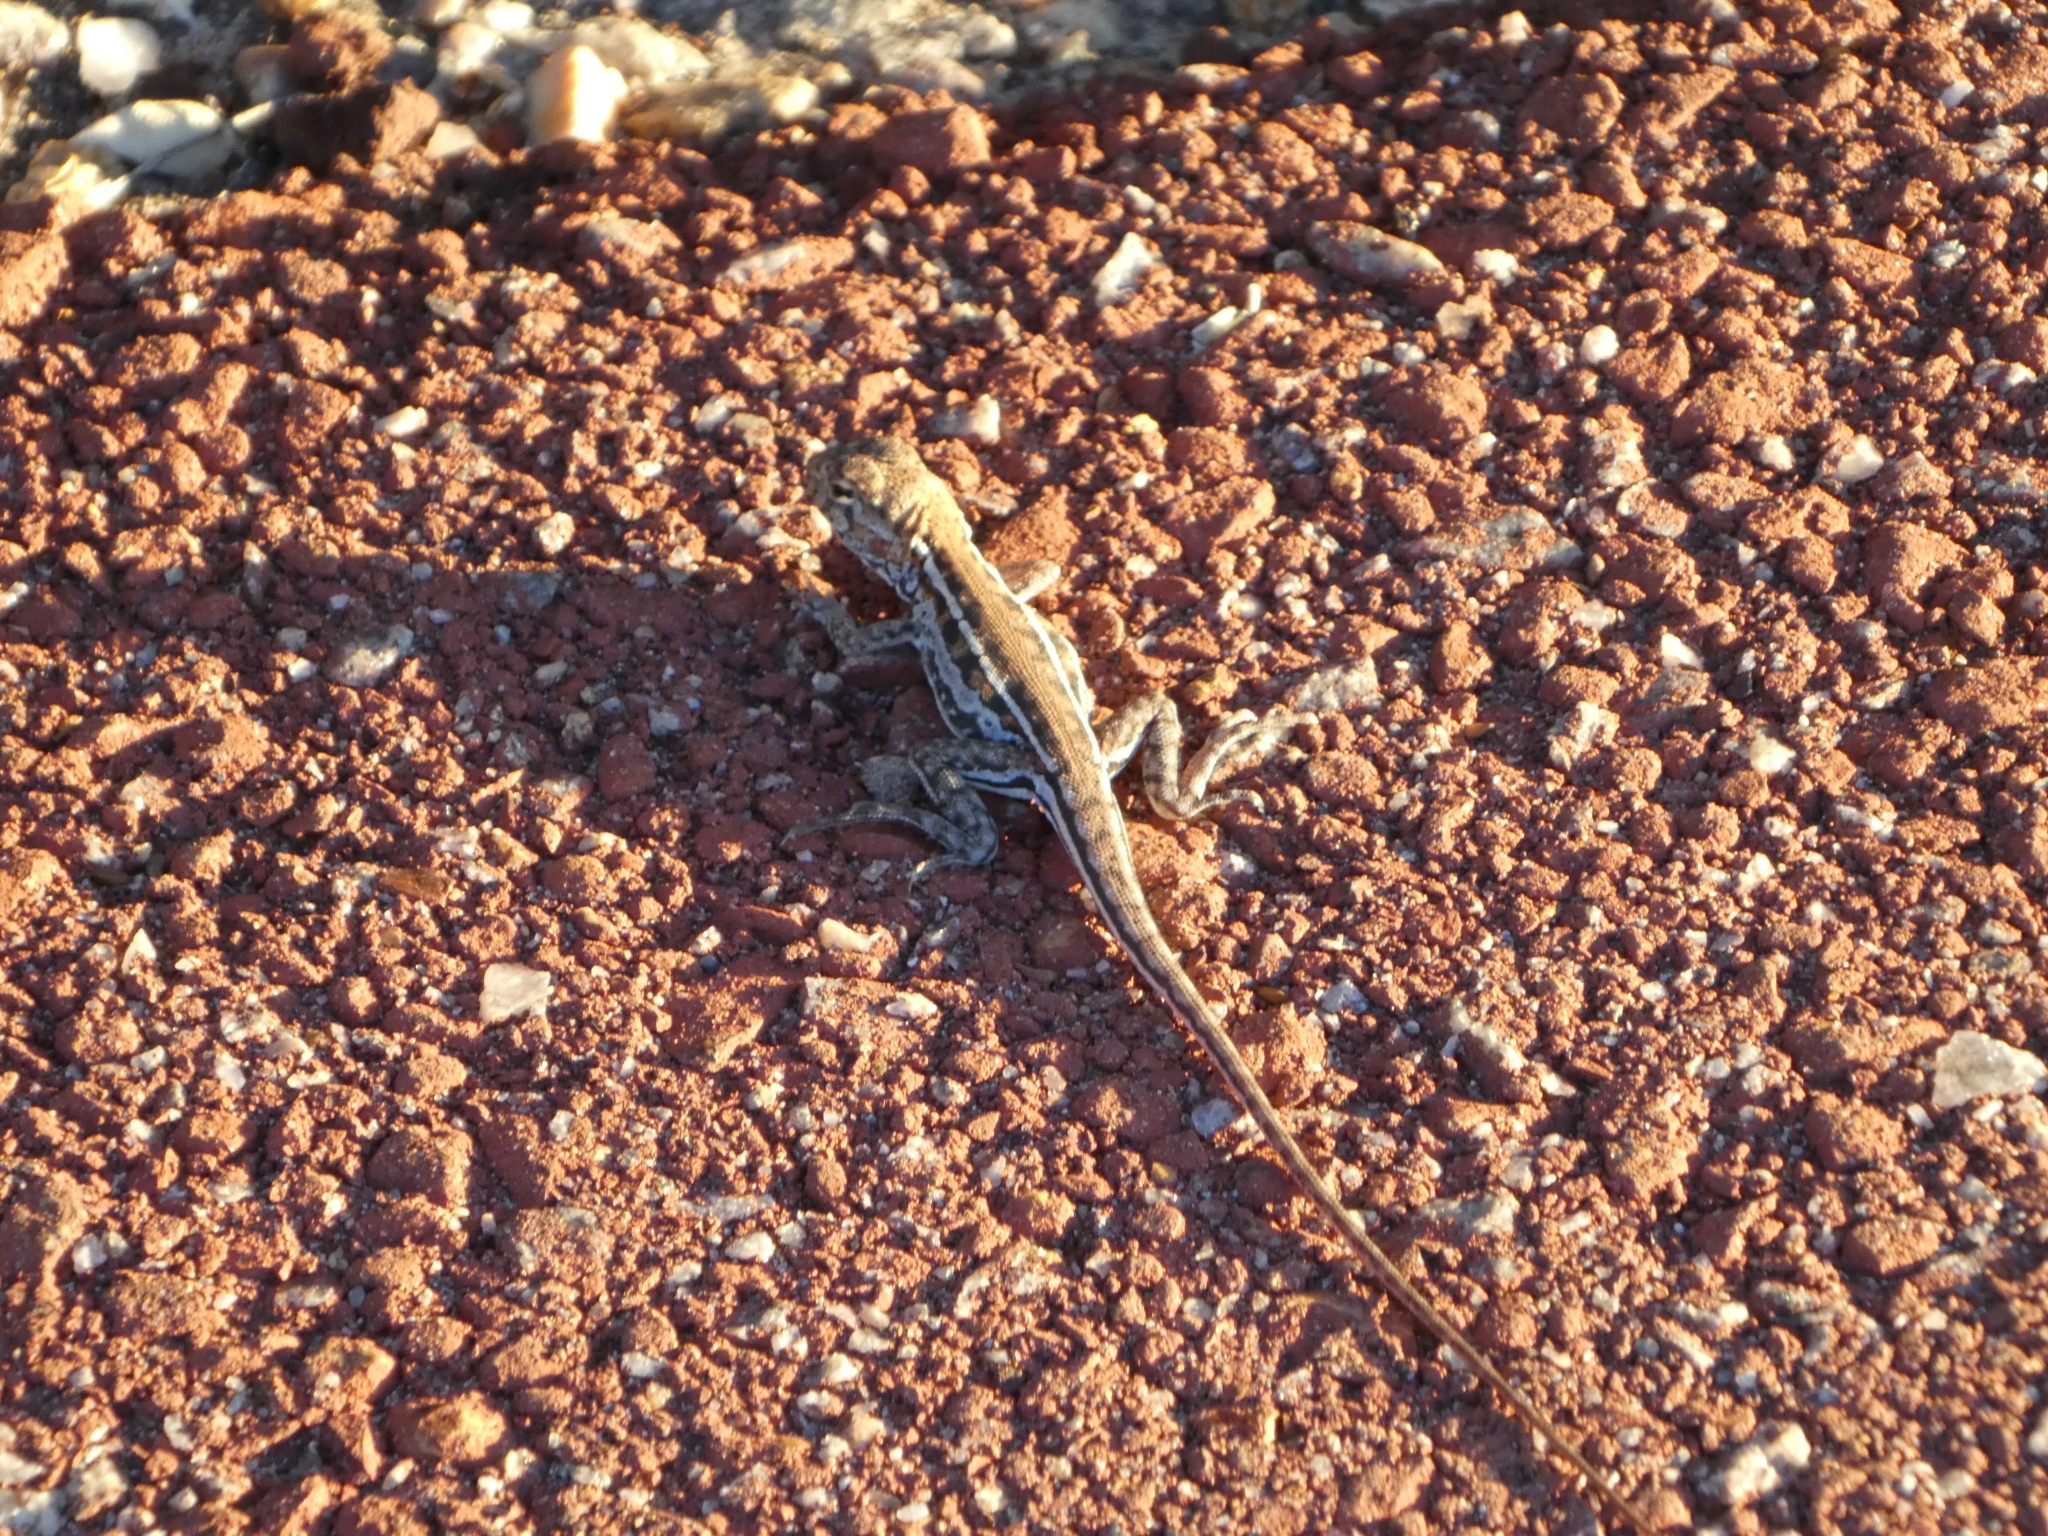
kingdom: Animalia
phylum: Chordata
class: Squamata
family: Agamidae
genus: Ctenophorus
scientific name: Ctenophorus maculatus
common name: Spotted dragon
